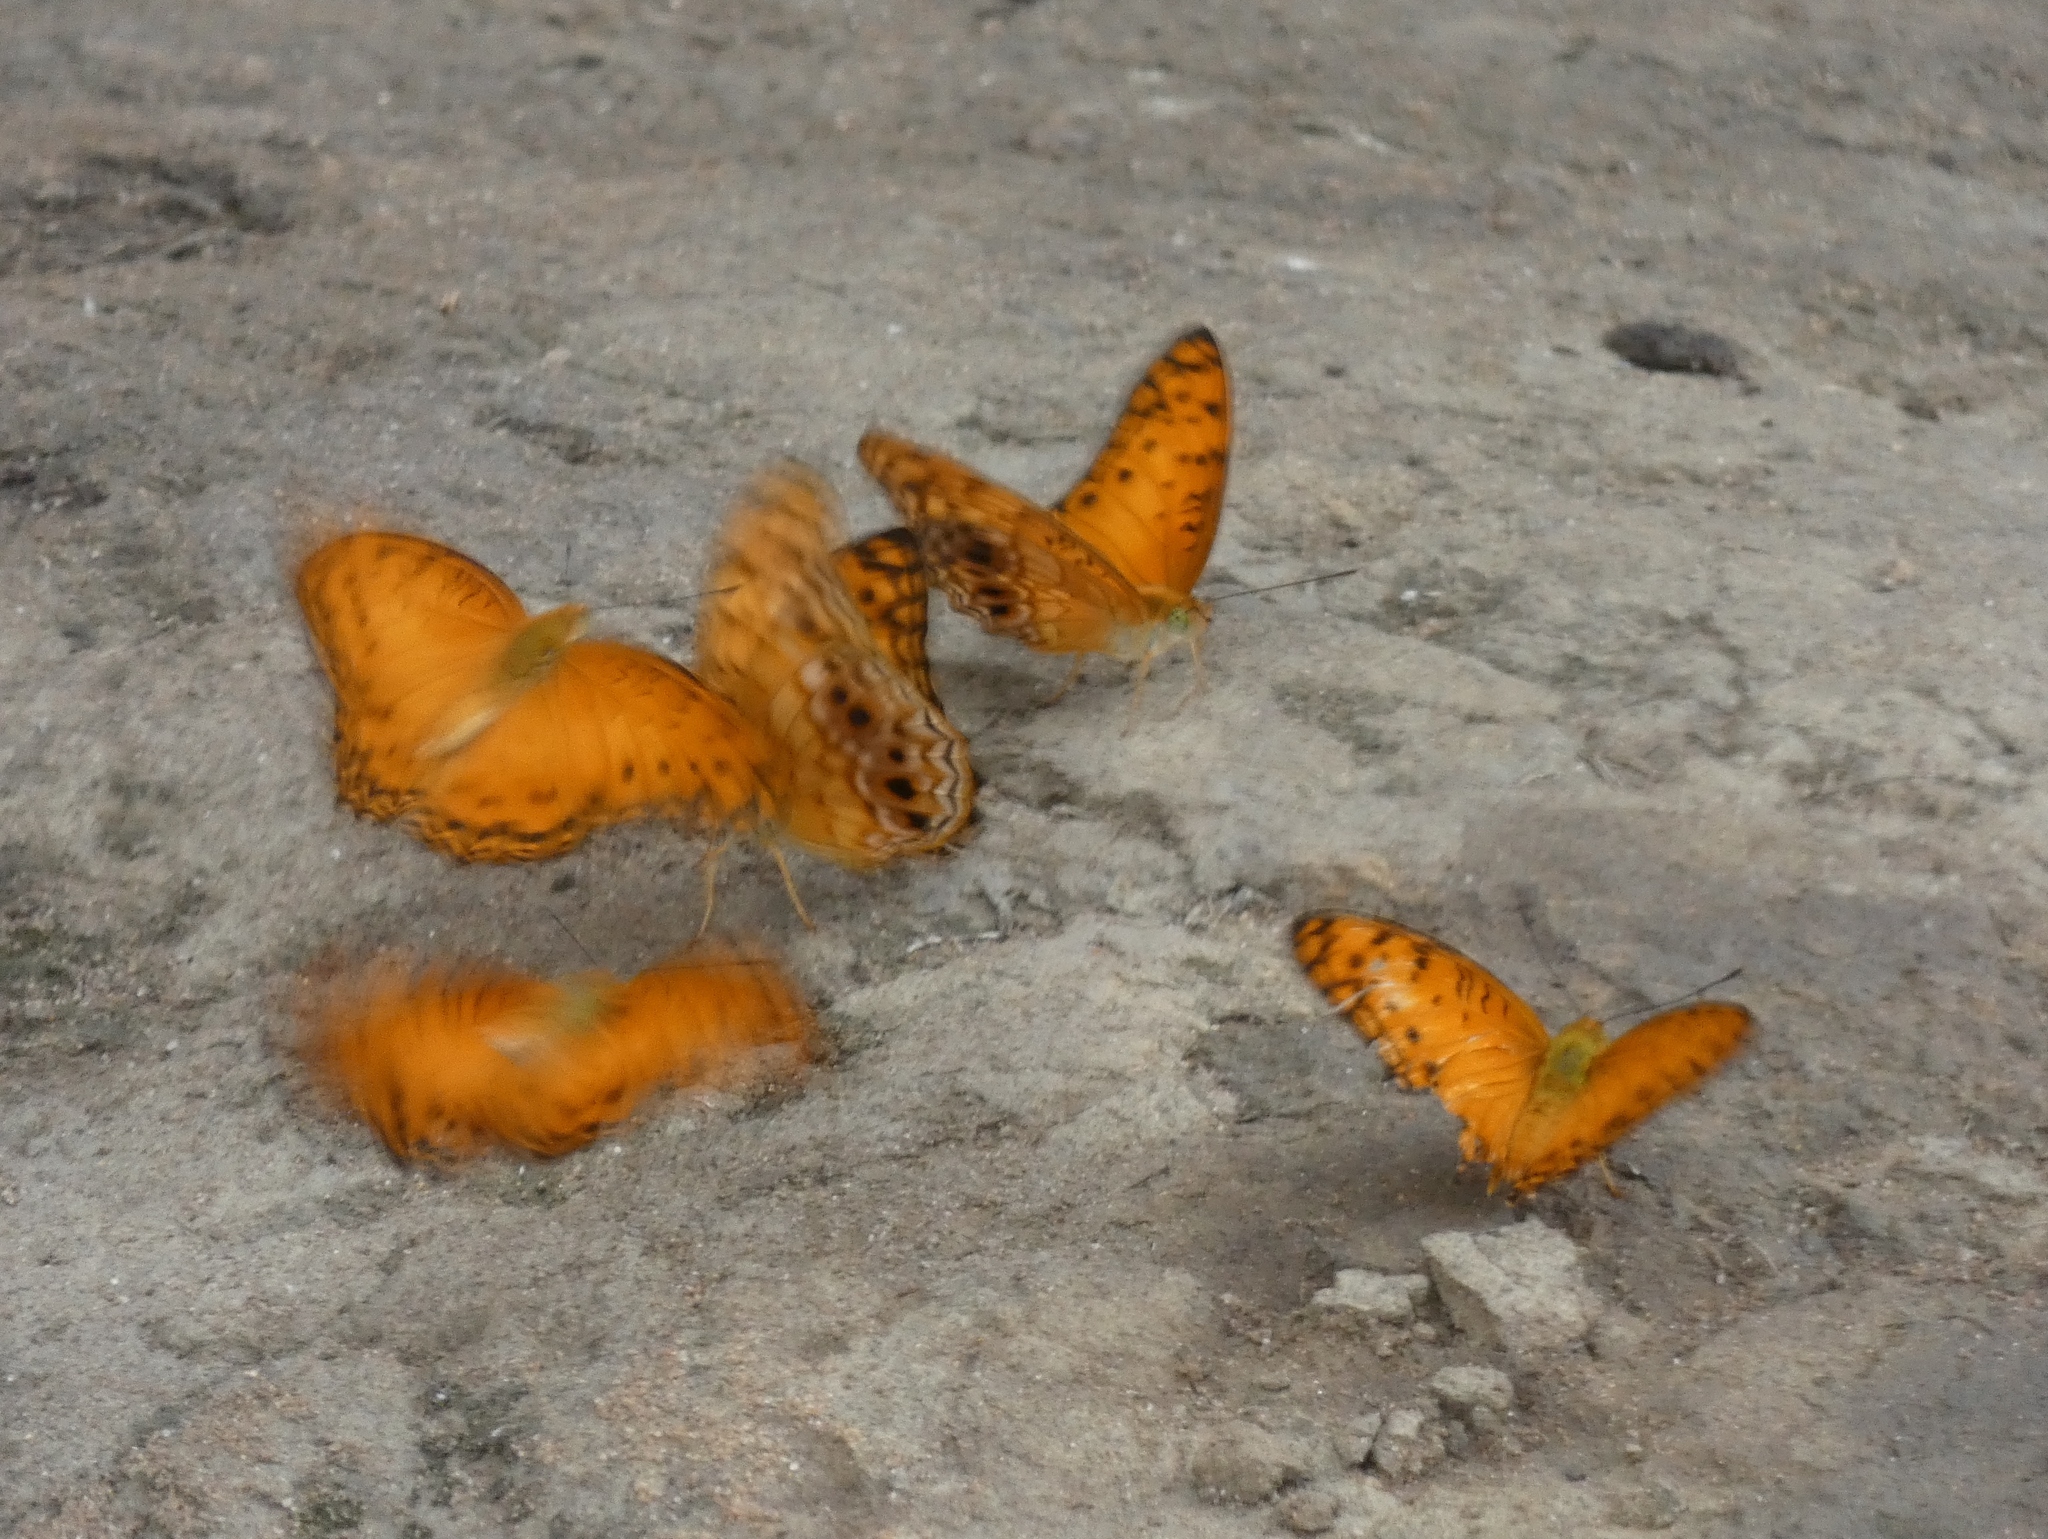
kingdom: Animalia
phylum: Arthropoda
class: Insecta
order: Lepidoptera
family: Nymphalidae
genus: Phalanta
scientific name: Phalanta columbina
